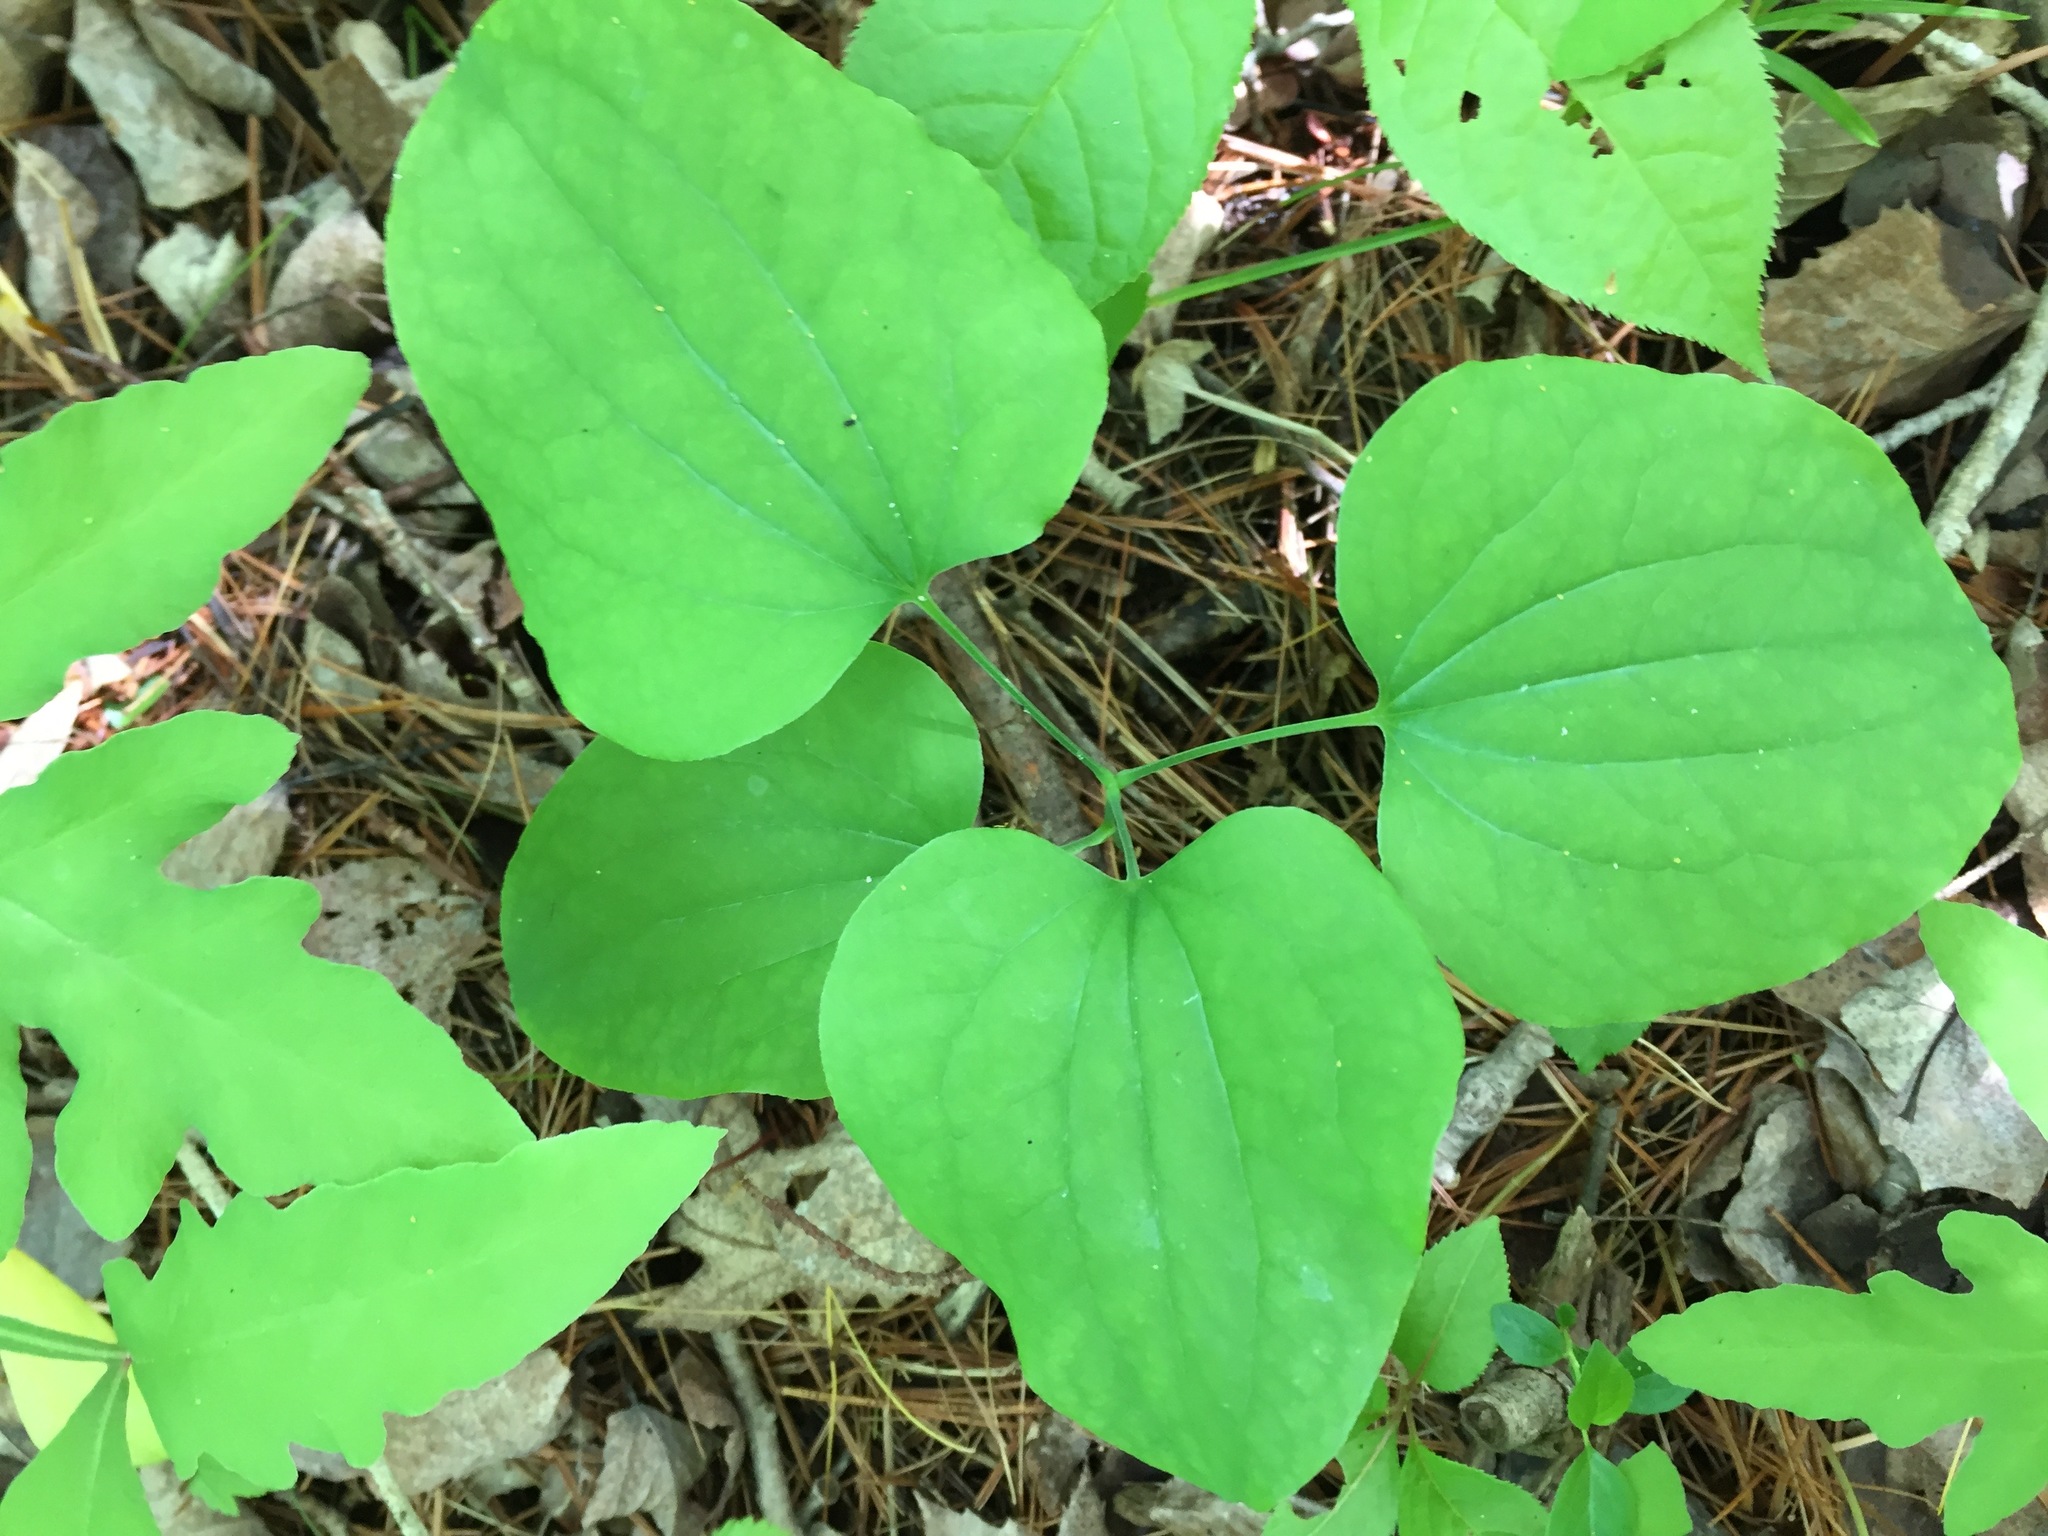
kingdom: Plantae
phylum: Tracheophyta
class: Liliopsida
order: Liliales
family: Smilacaceae
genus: Smilax
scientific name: Smilax herbacea
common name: Jacob's-ladder
